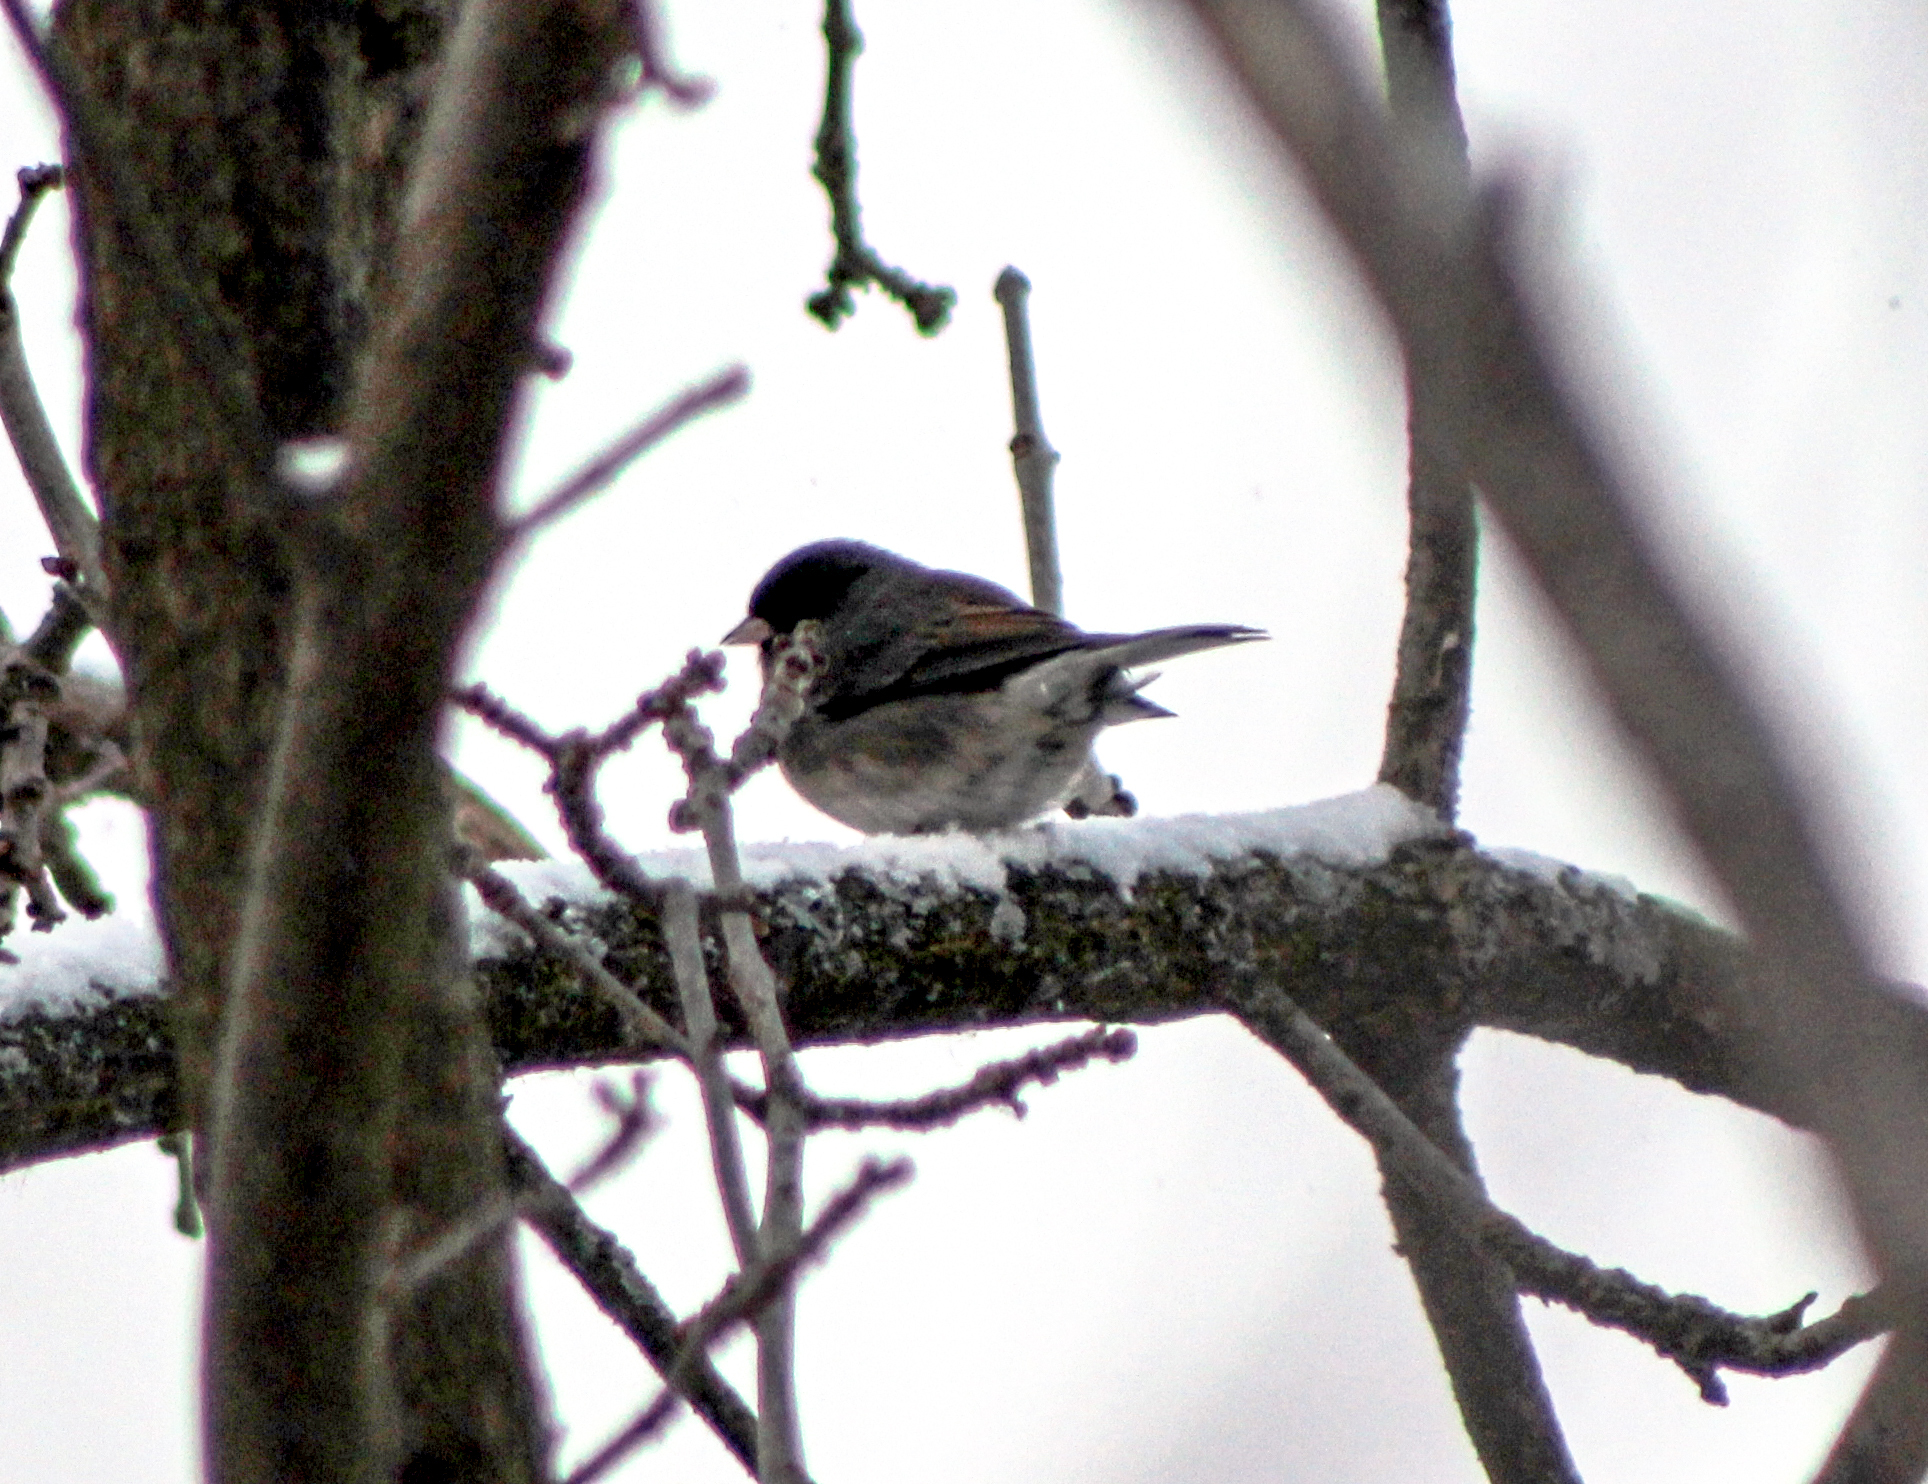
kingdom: Animalia
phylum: Chordata
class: Aves
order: Passeriformes
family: Passerellidae
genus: Junco
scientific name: Junco hyemalis
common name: Dark-eyed junco
